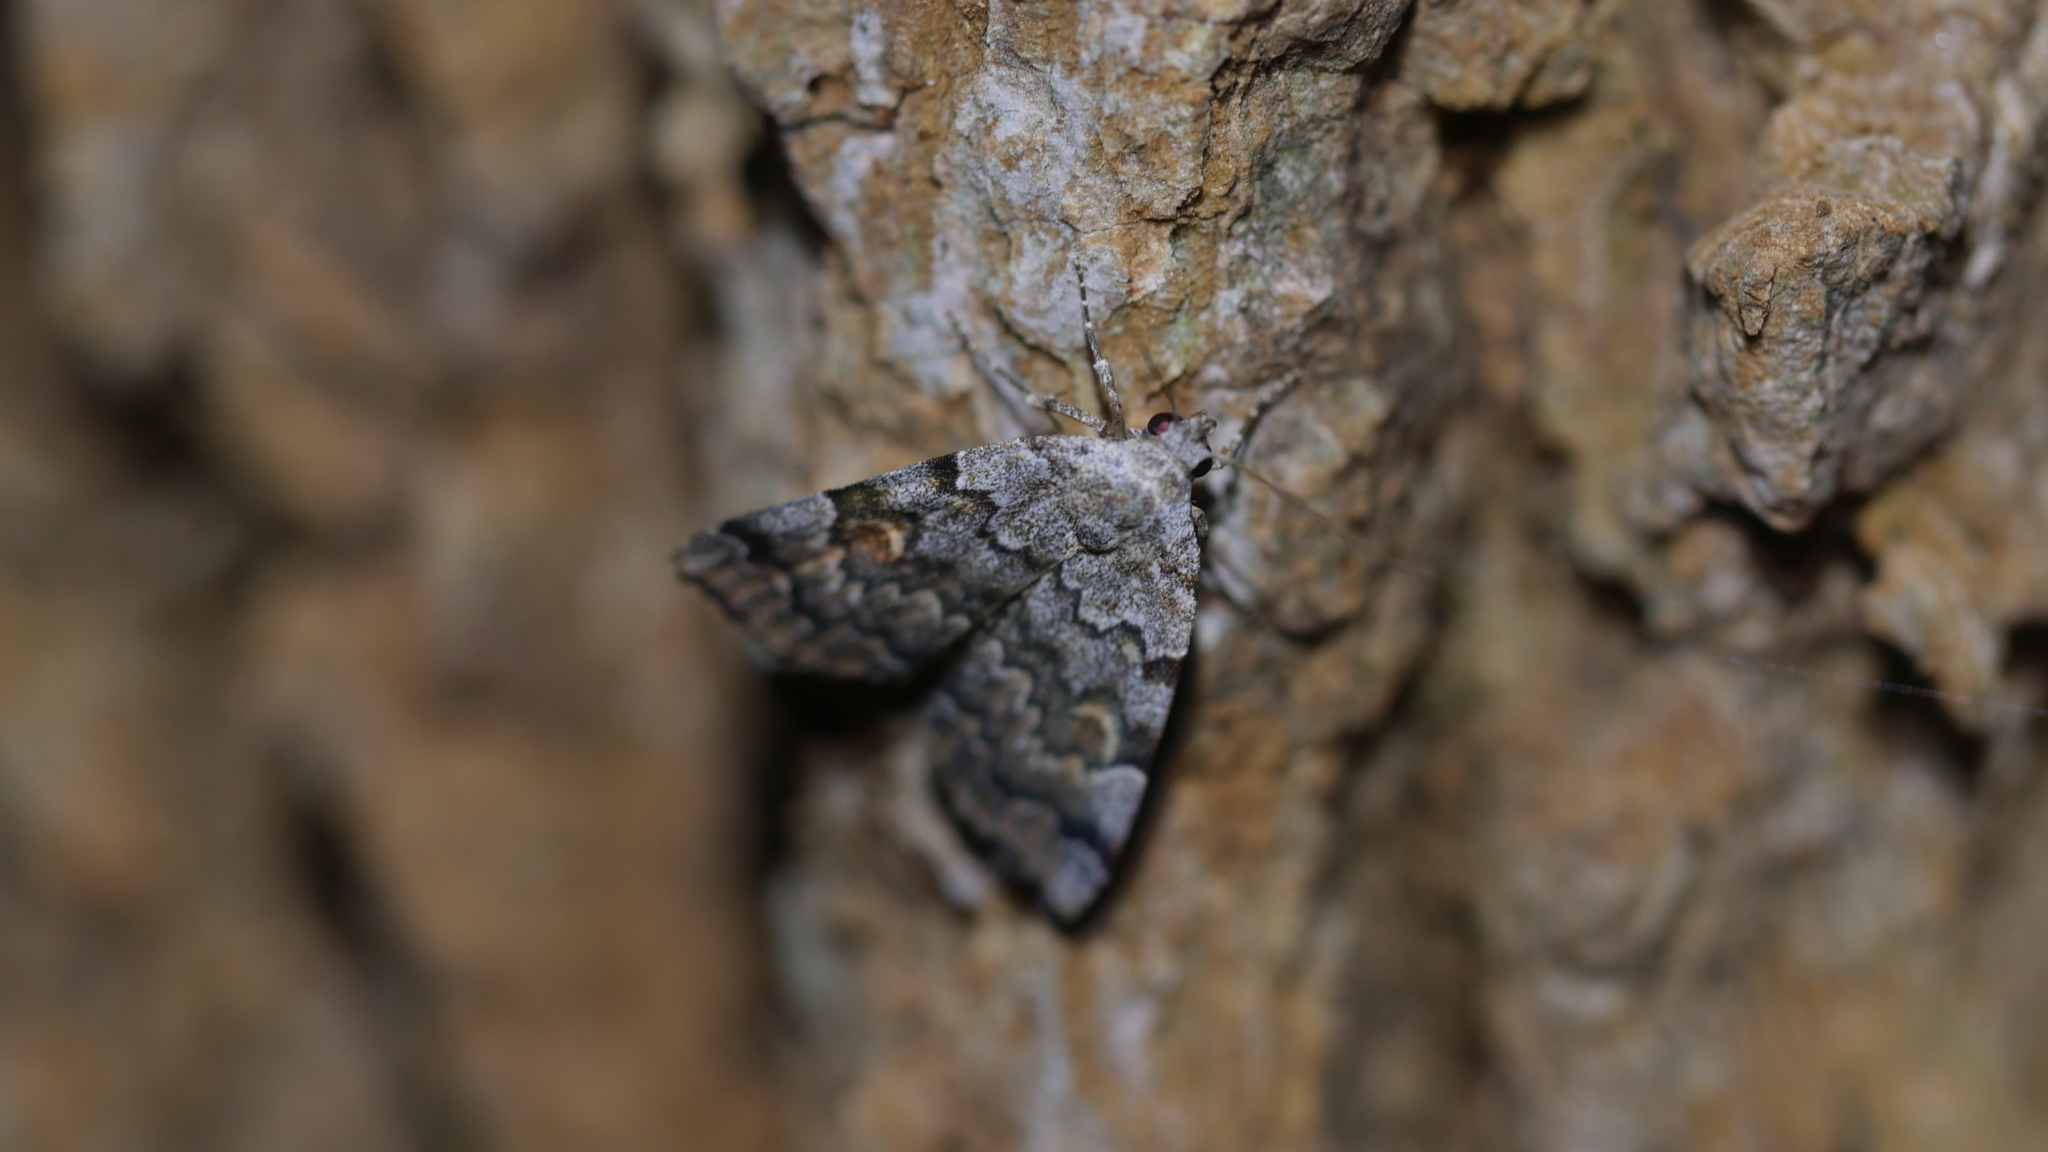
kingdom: Animalia
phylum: Arthropoda
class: Insecta
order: Lepidoptera
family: Erebidae
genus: Idia
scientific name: Idia americalis
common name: American idia moth
